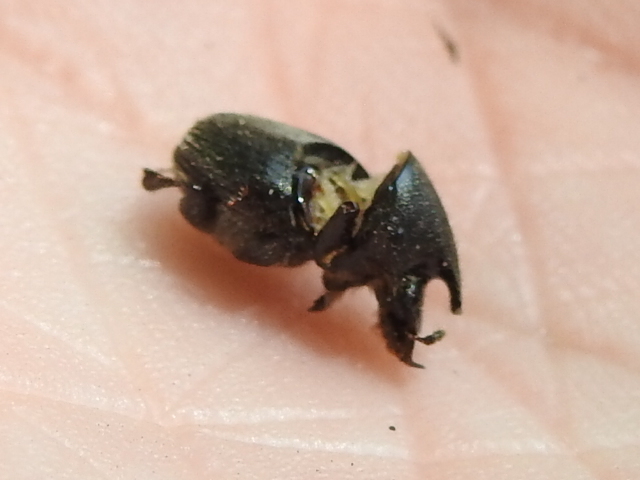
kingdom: Animalia
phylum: Arthropoda
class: Insecta
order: Coleoptera
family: Scarabaeidae
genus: Onthophagus
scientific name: Onthophagus hecate
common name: Scooped scarab
